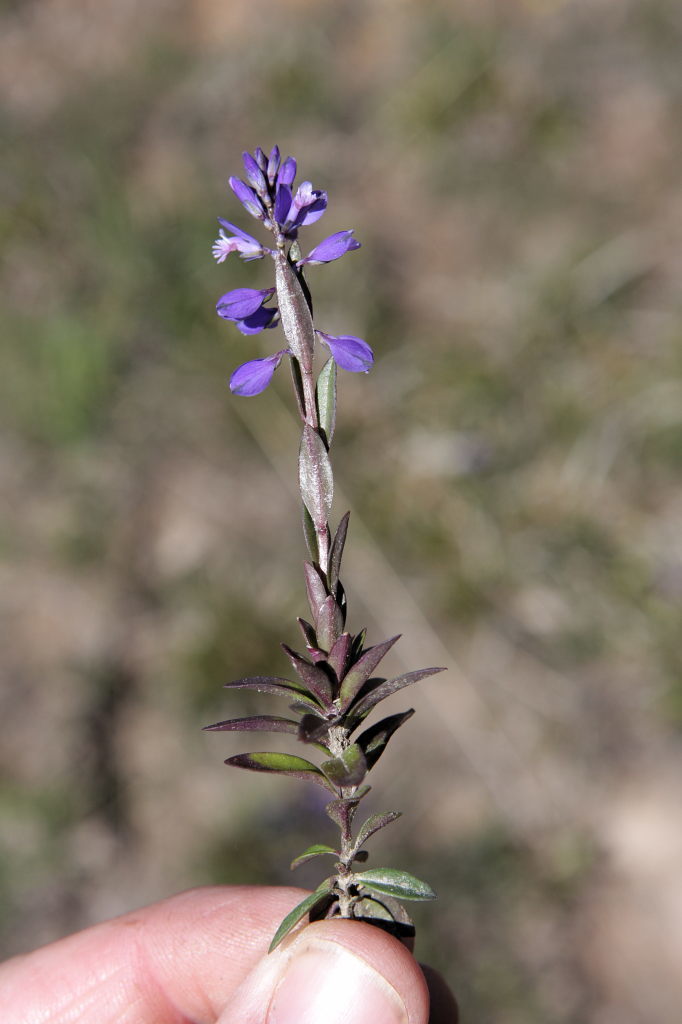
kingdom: Plantae
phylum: Tracheophyta
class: Magnoliopsida
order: Fabales
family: Polygalaceae
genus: Polygala
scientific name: Polygala serpyllifolia
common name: Heath milkwort
